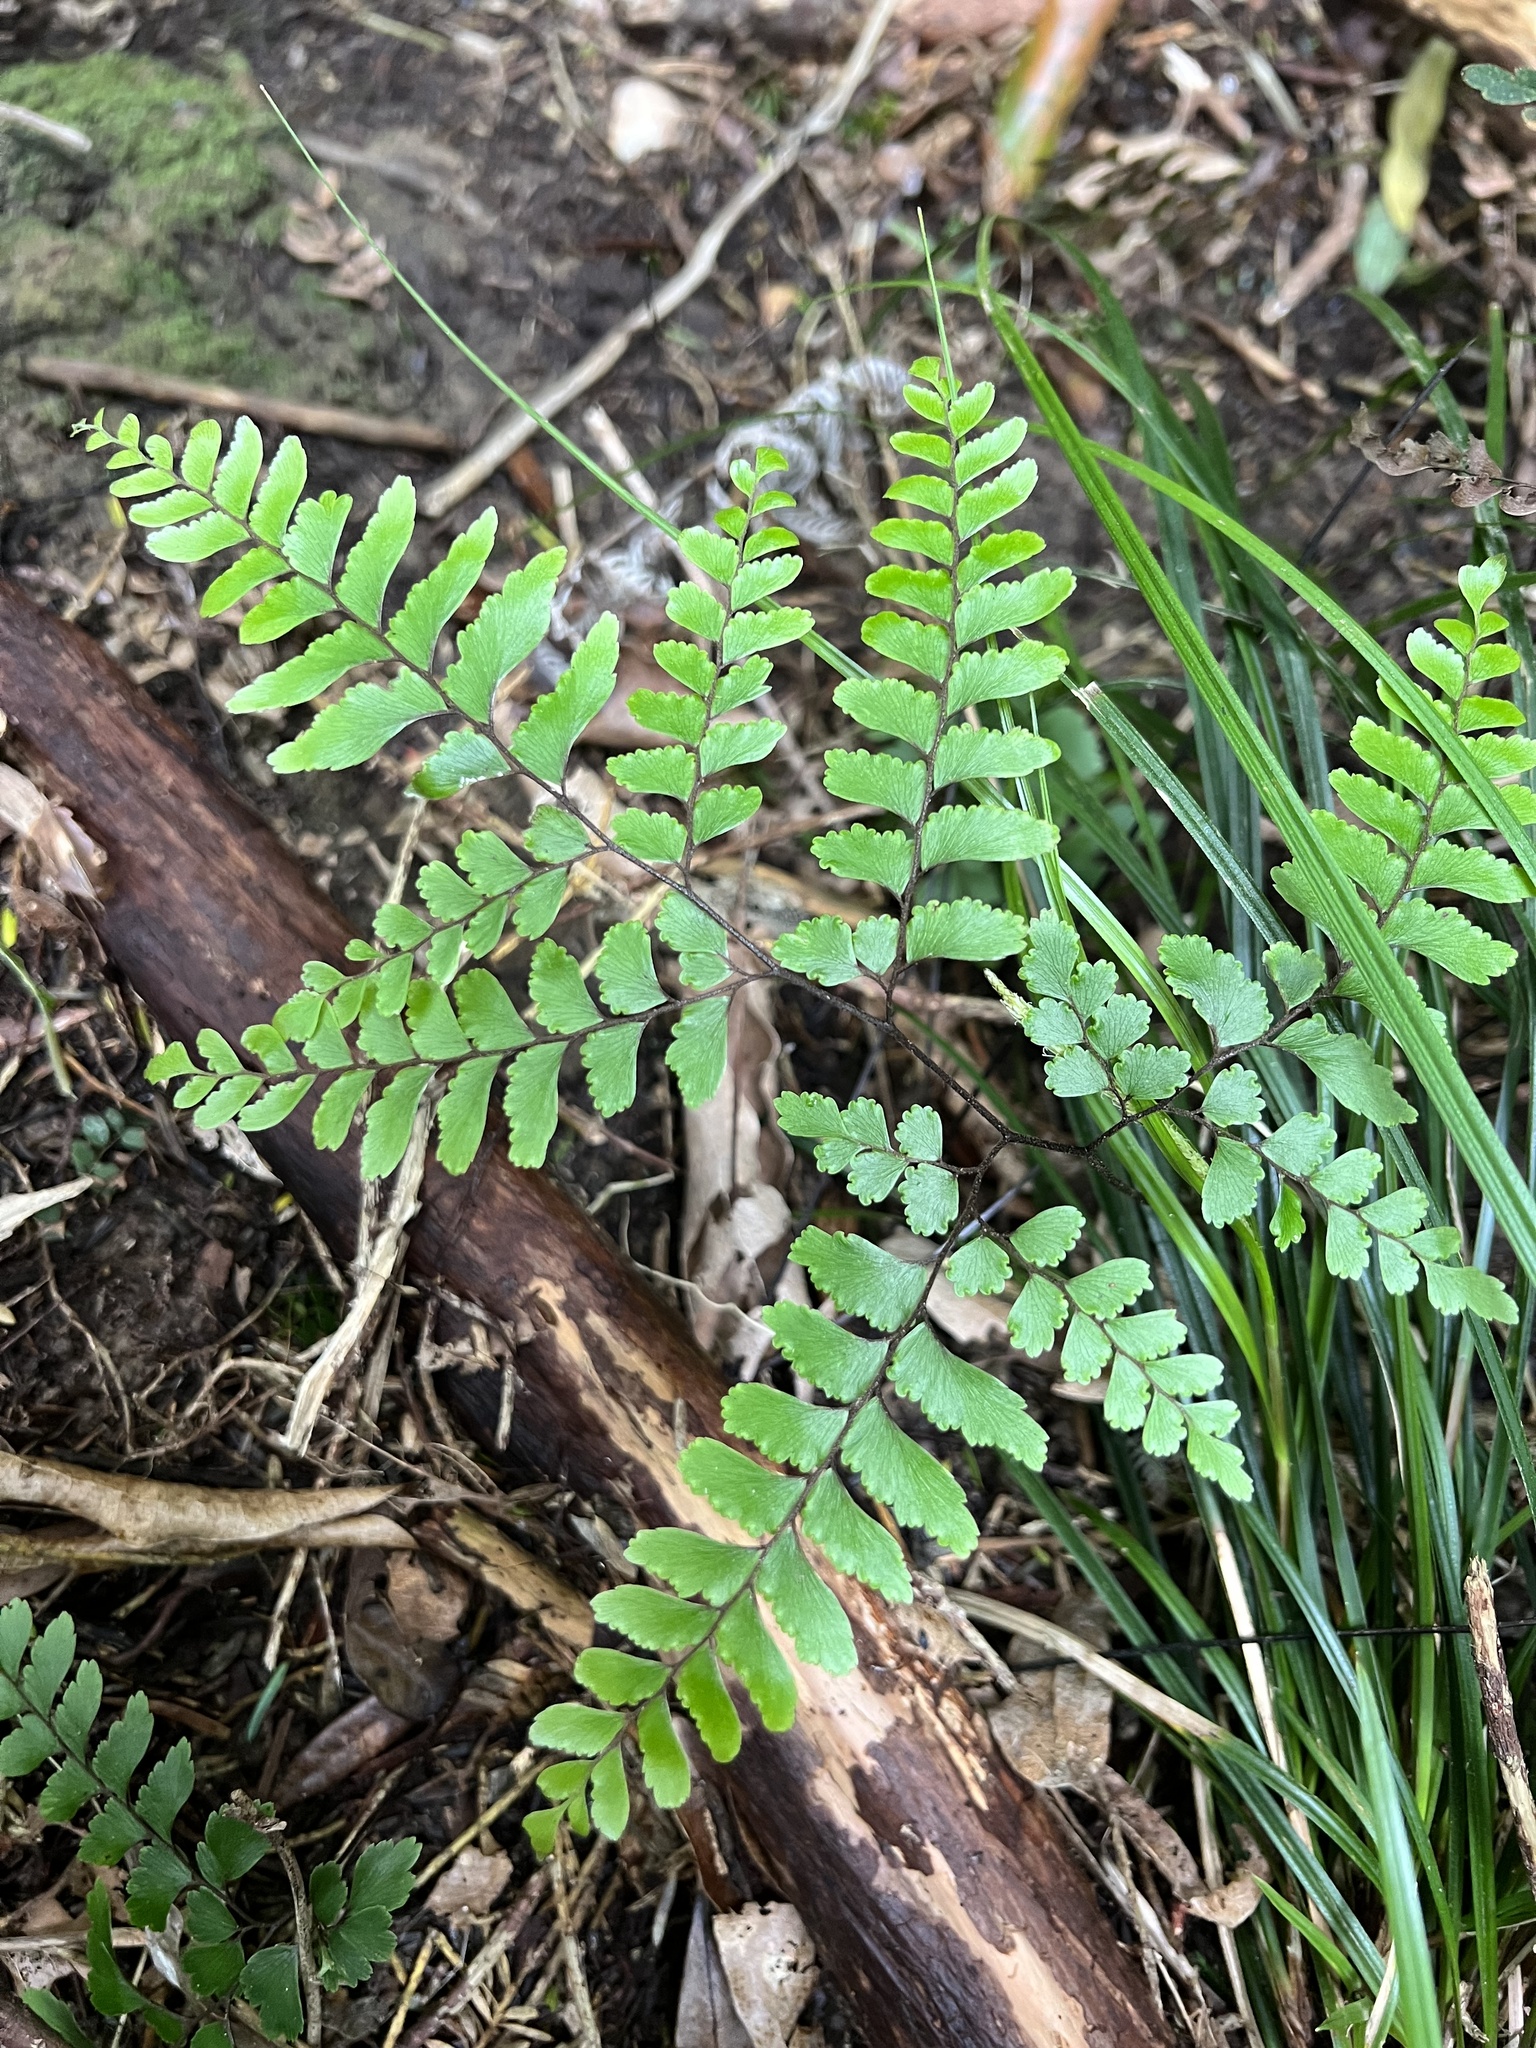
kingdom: Plantae
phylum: Tracheophyta
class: Polypodiopsida
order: Polypodiales
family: Pteridaceae
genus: Adiantum
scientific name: Adiantum fulvum
